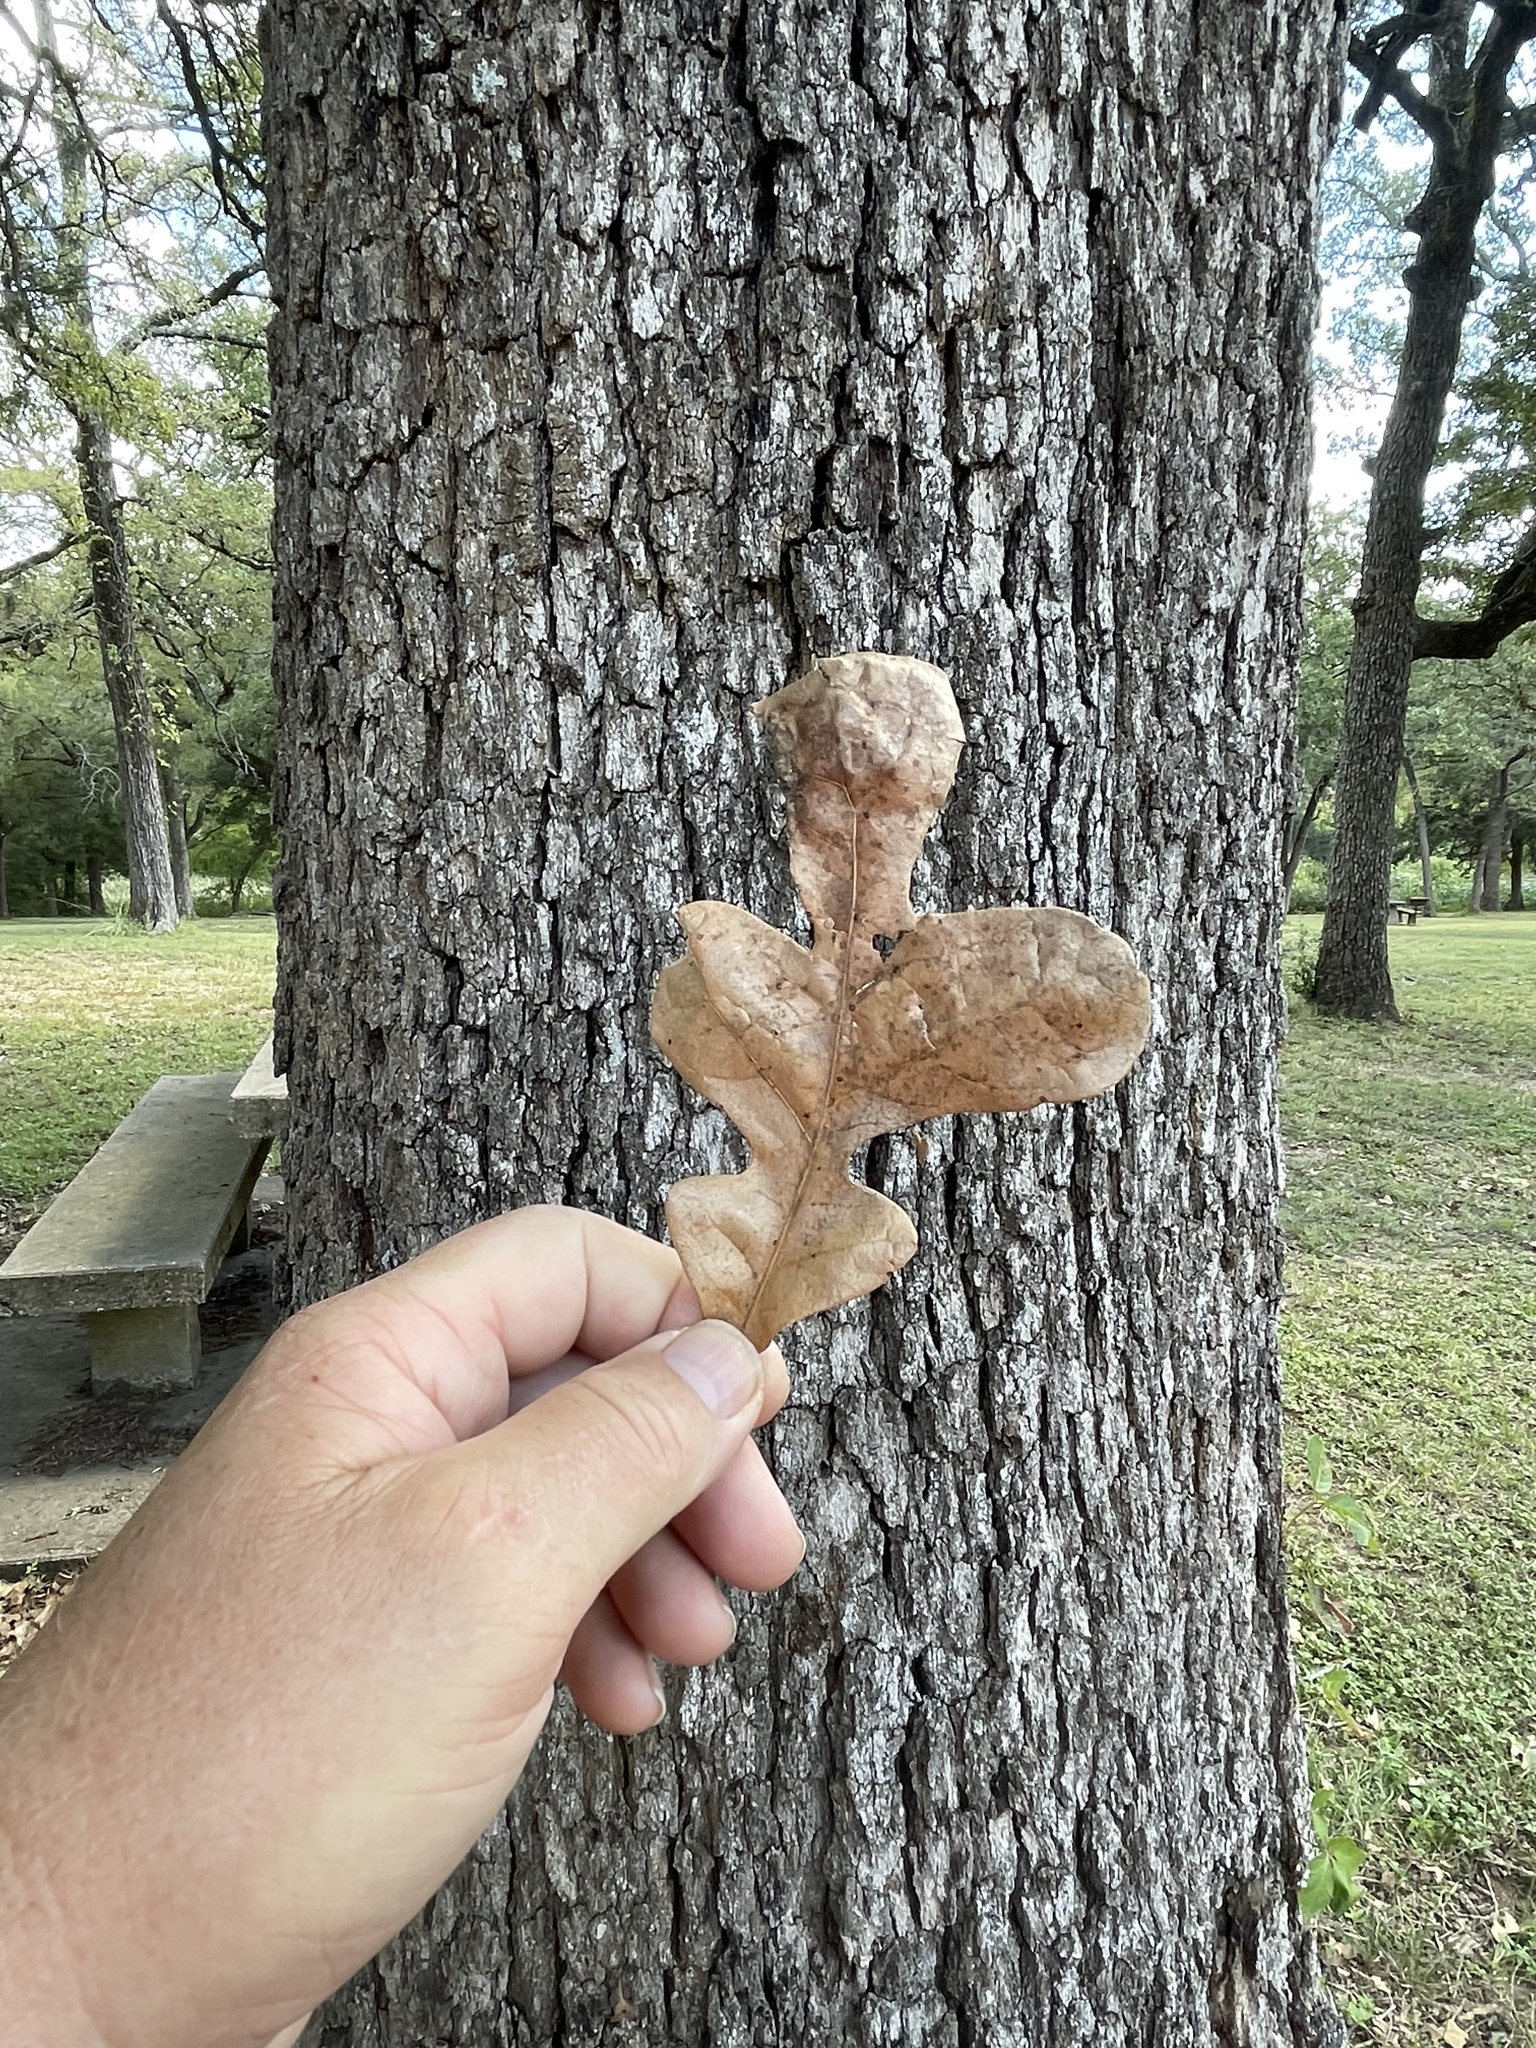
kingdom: Plantae
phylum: Tracheophyta
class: Magnoliopsida
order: Fagales
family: Fagaceae
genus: Quercus
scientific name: Quercus stellata
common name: Post oak
